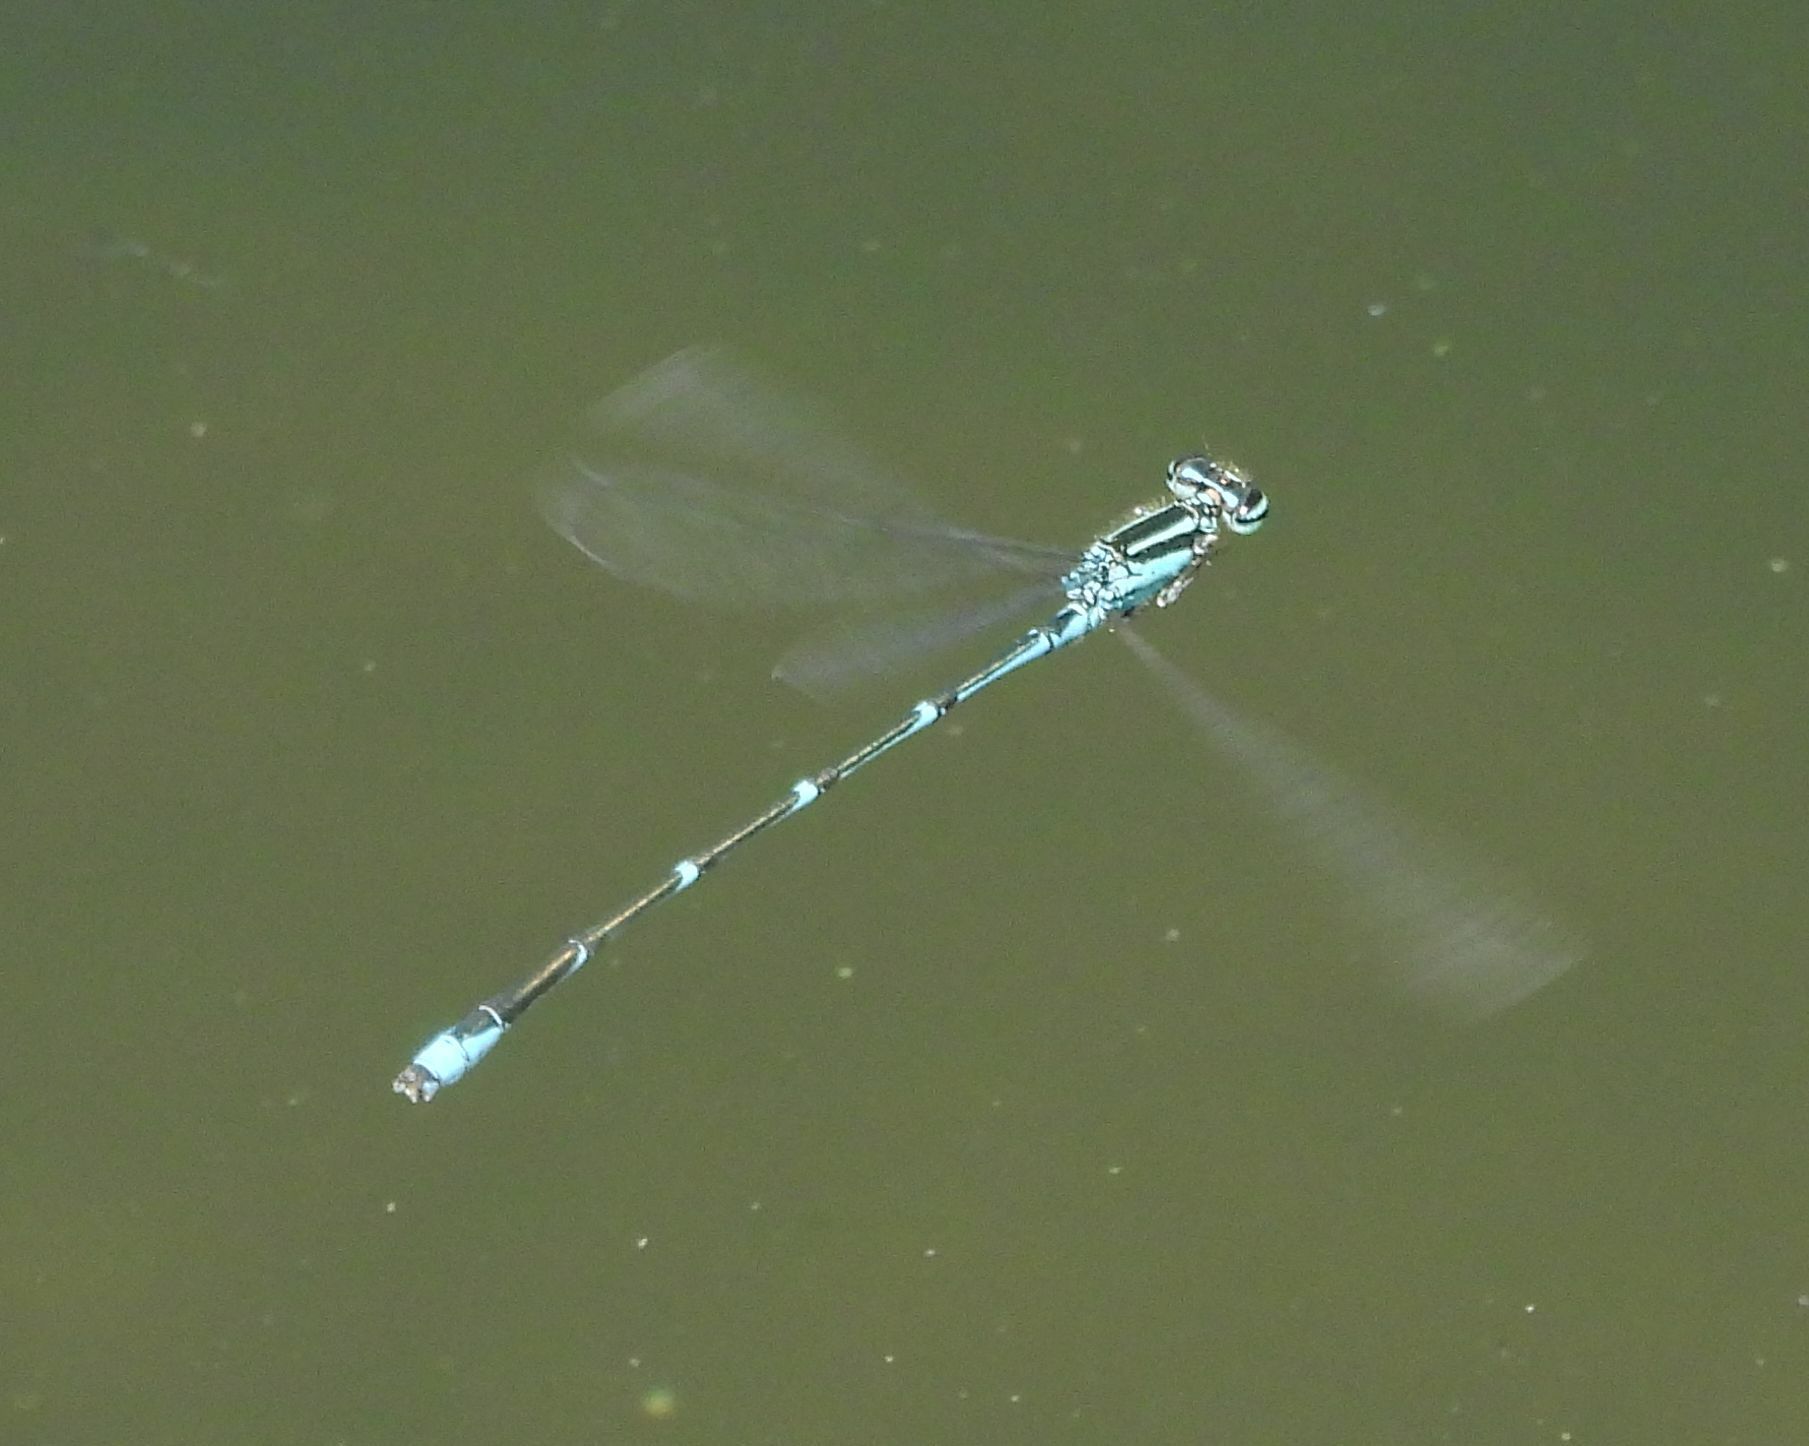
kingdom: Animalia
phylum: Arthropoda
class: Insecta
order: Odonata
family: Coenagrionidae
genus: Enallagma
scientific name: Enallagma exsulans
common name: Stream bluet
